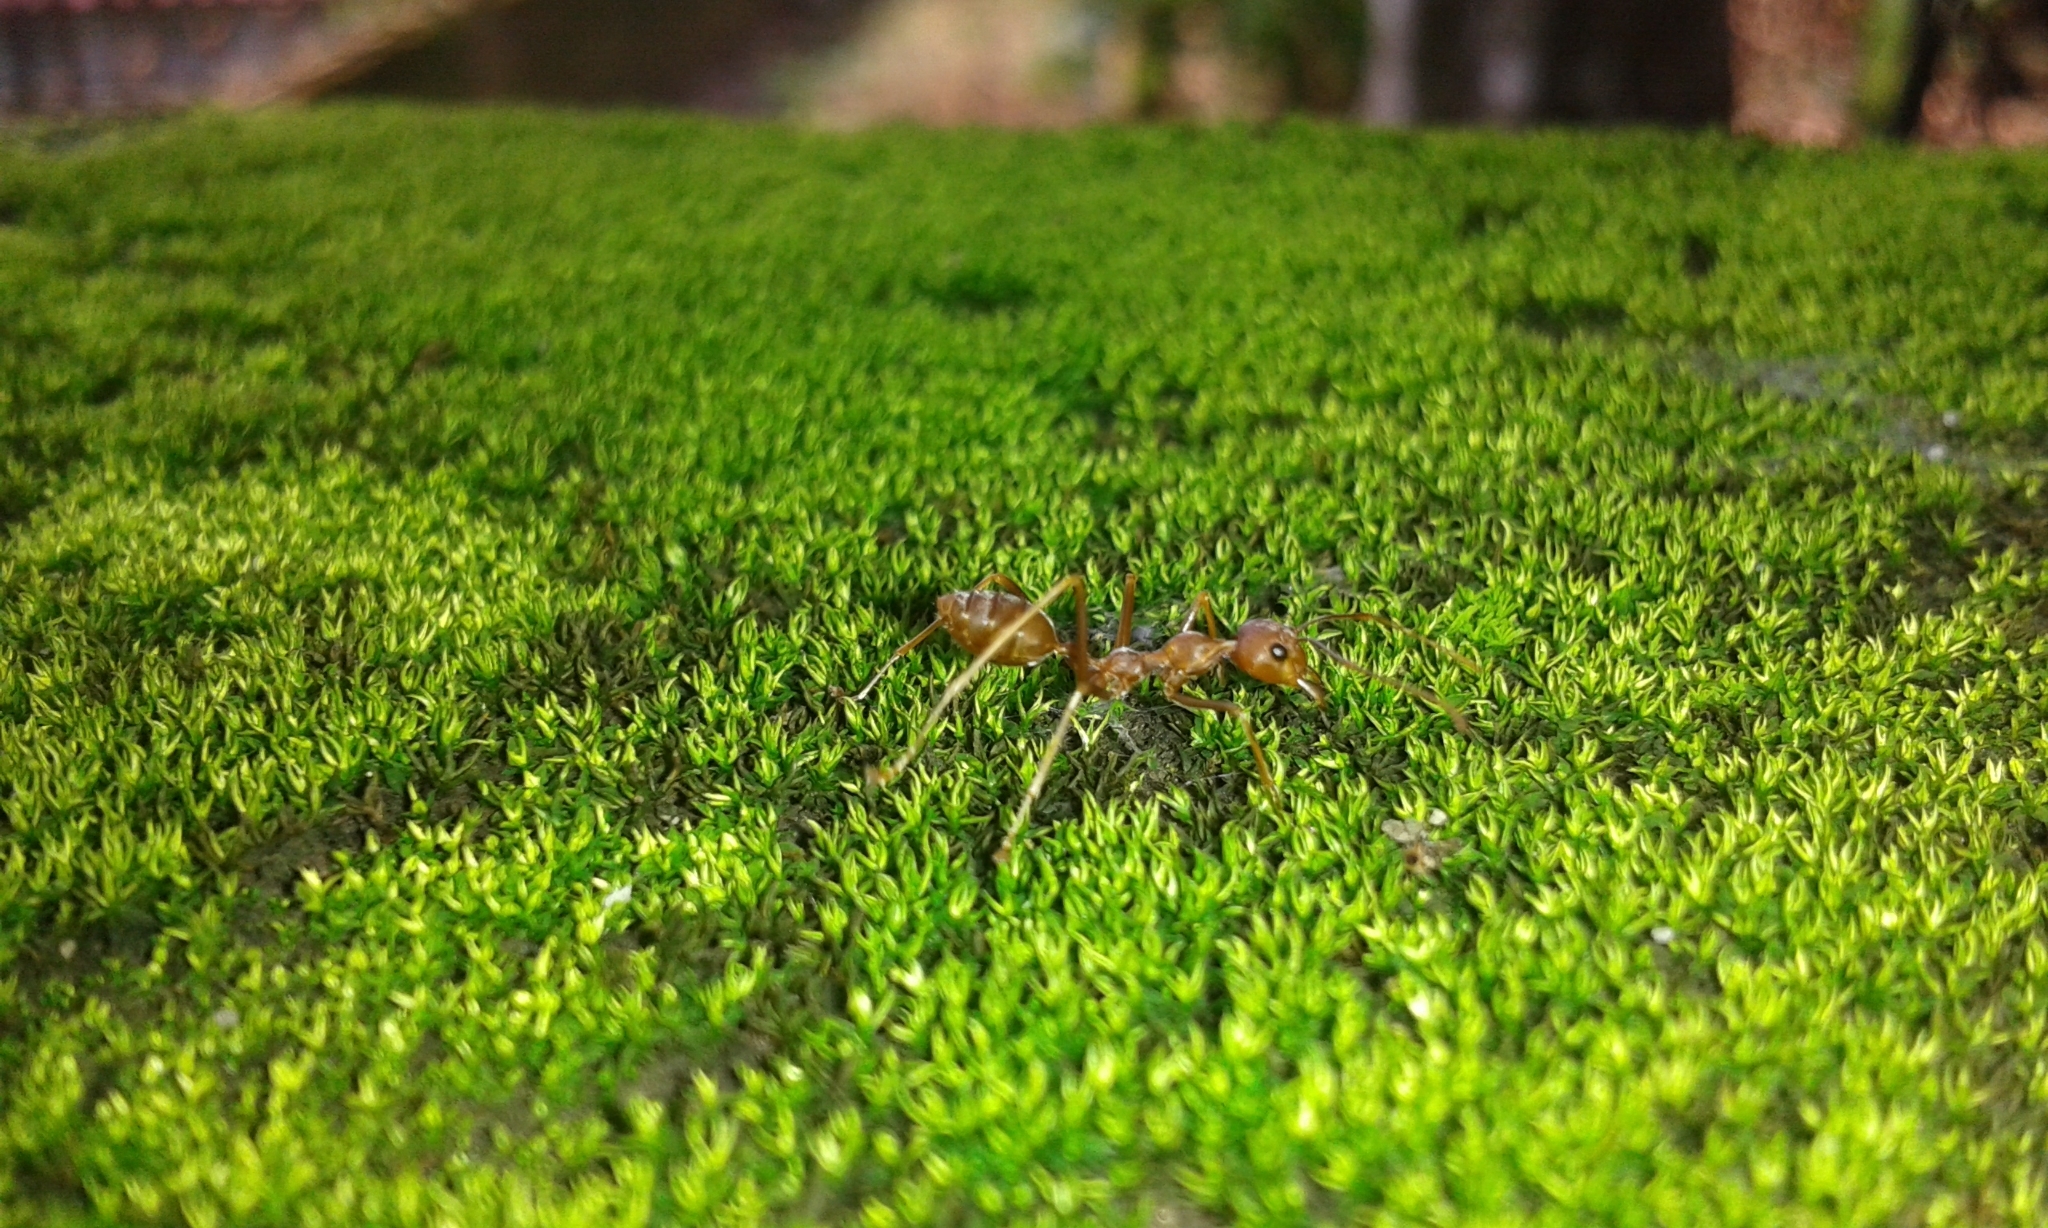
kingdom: Animalia
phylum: Arthropoda
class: Insecta
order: Hymenoptera
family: Formicidae
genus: Oecophylla
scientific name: Oecophylla smaragdina
